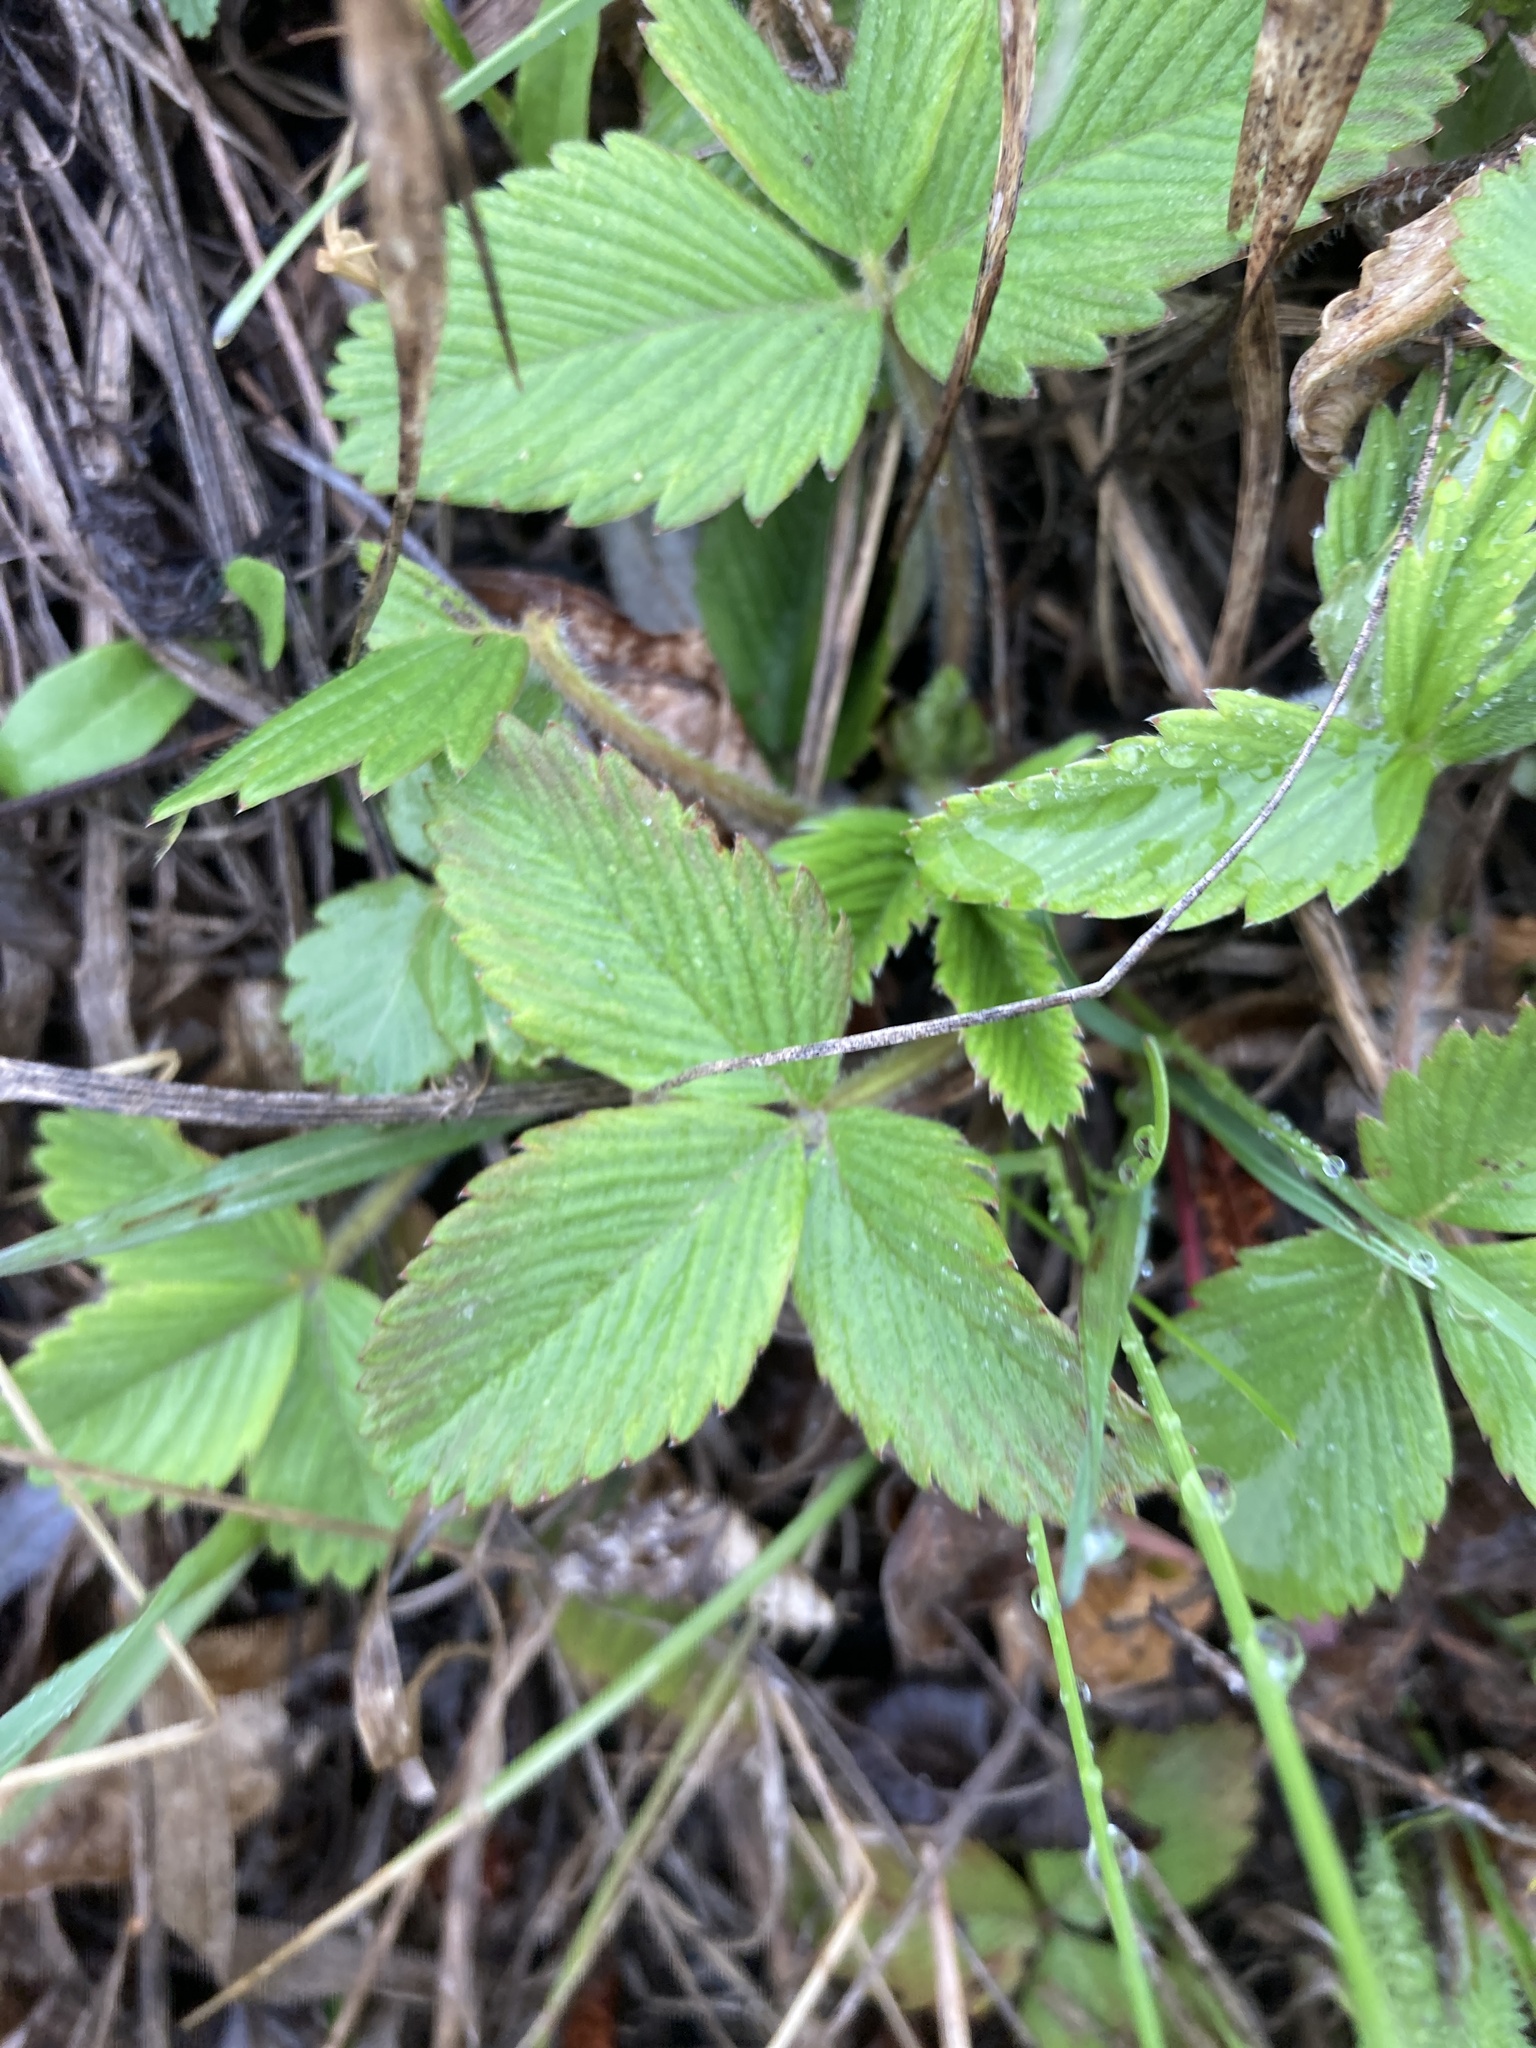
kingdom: Plantae
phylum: Tracheophyta
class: Magnoliopsida
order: Rosales
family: Rosaceae
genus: Fragaria
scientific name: Fragaria viridis
